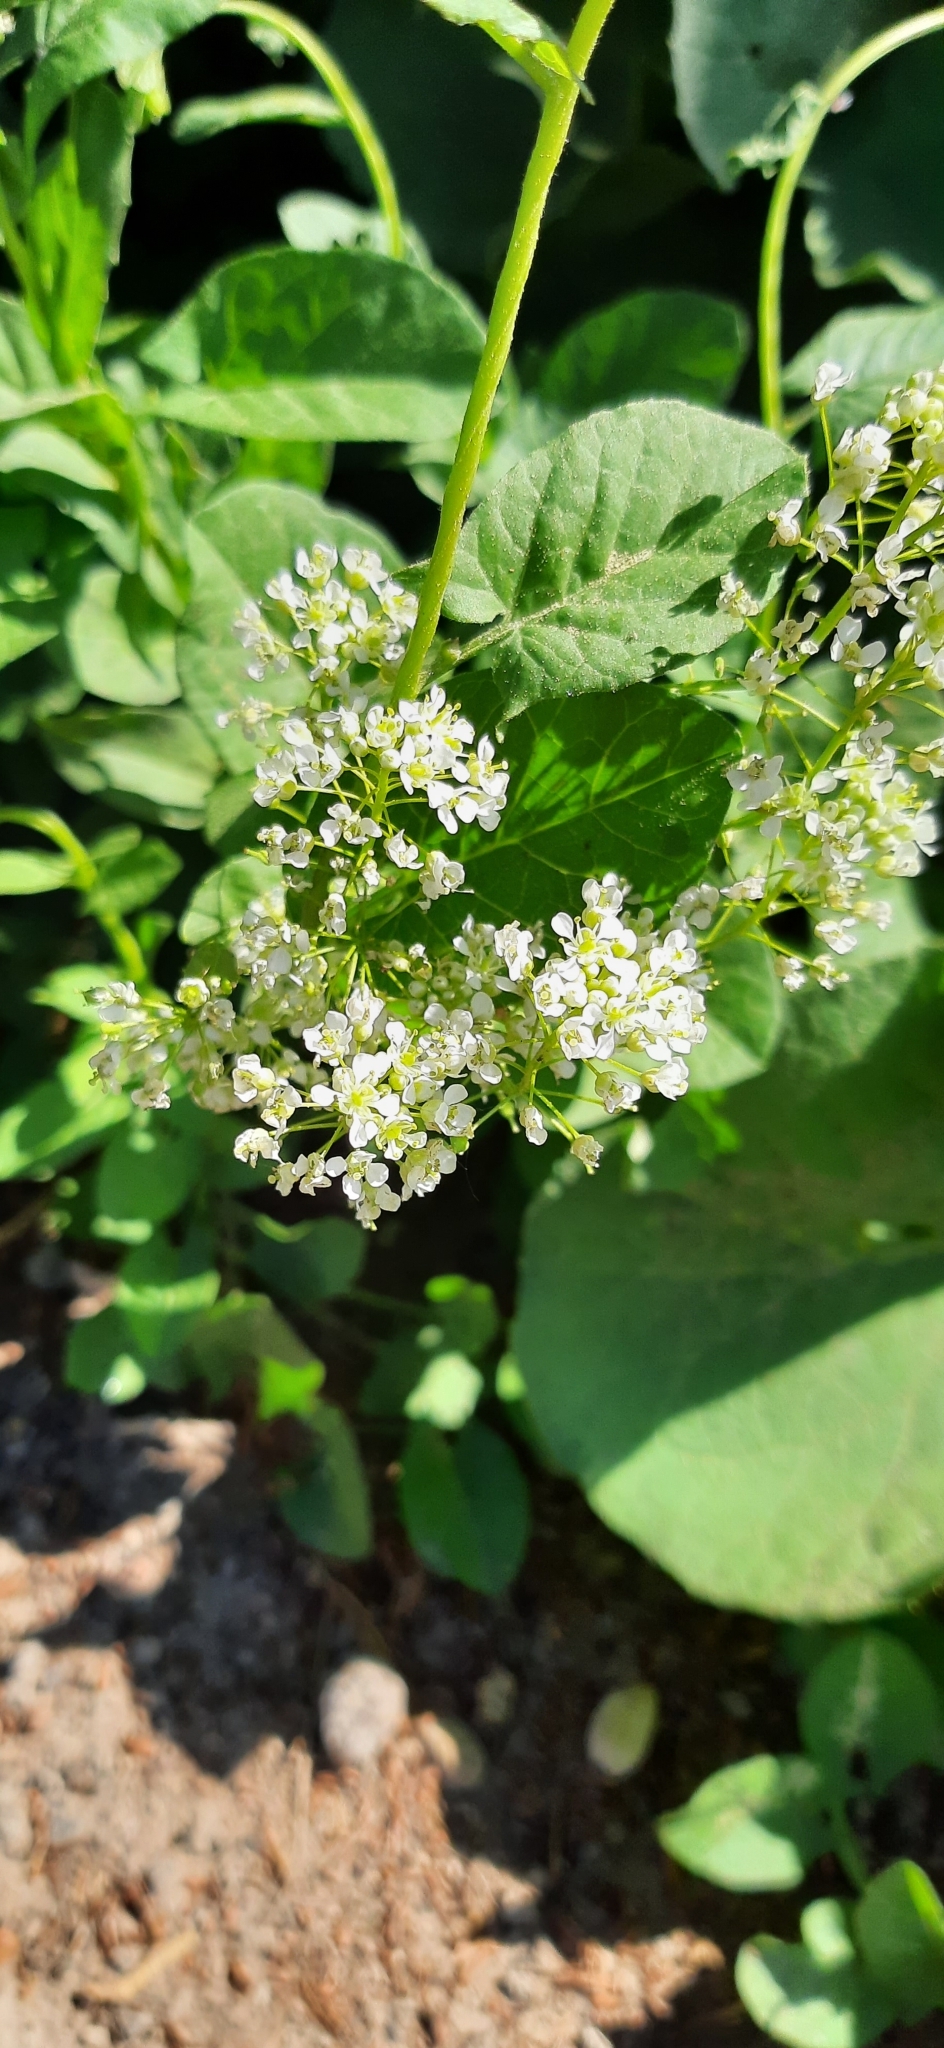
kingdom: Plantae
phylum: Tracheophyta
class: Magnoliopsida
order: Brassicales
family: Brassicaceae
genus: Thlaspi
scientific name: Thlaspi arvense
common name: Field pennycress
